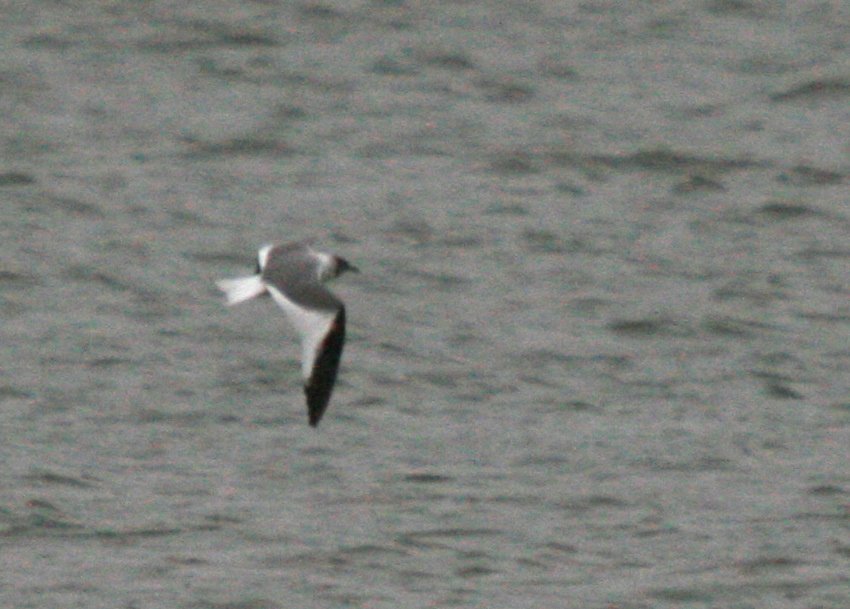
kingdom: Animalia
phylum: Chordata
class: Aves
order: Charadriiformes
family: Laridae
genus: Xema
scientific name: Xema sabini
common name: Sabine's gull
